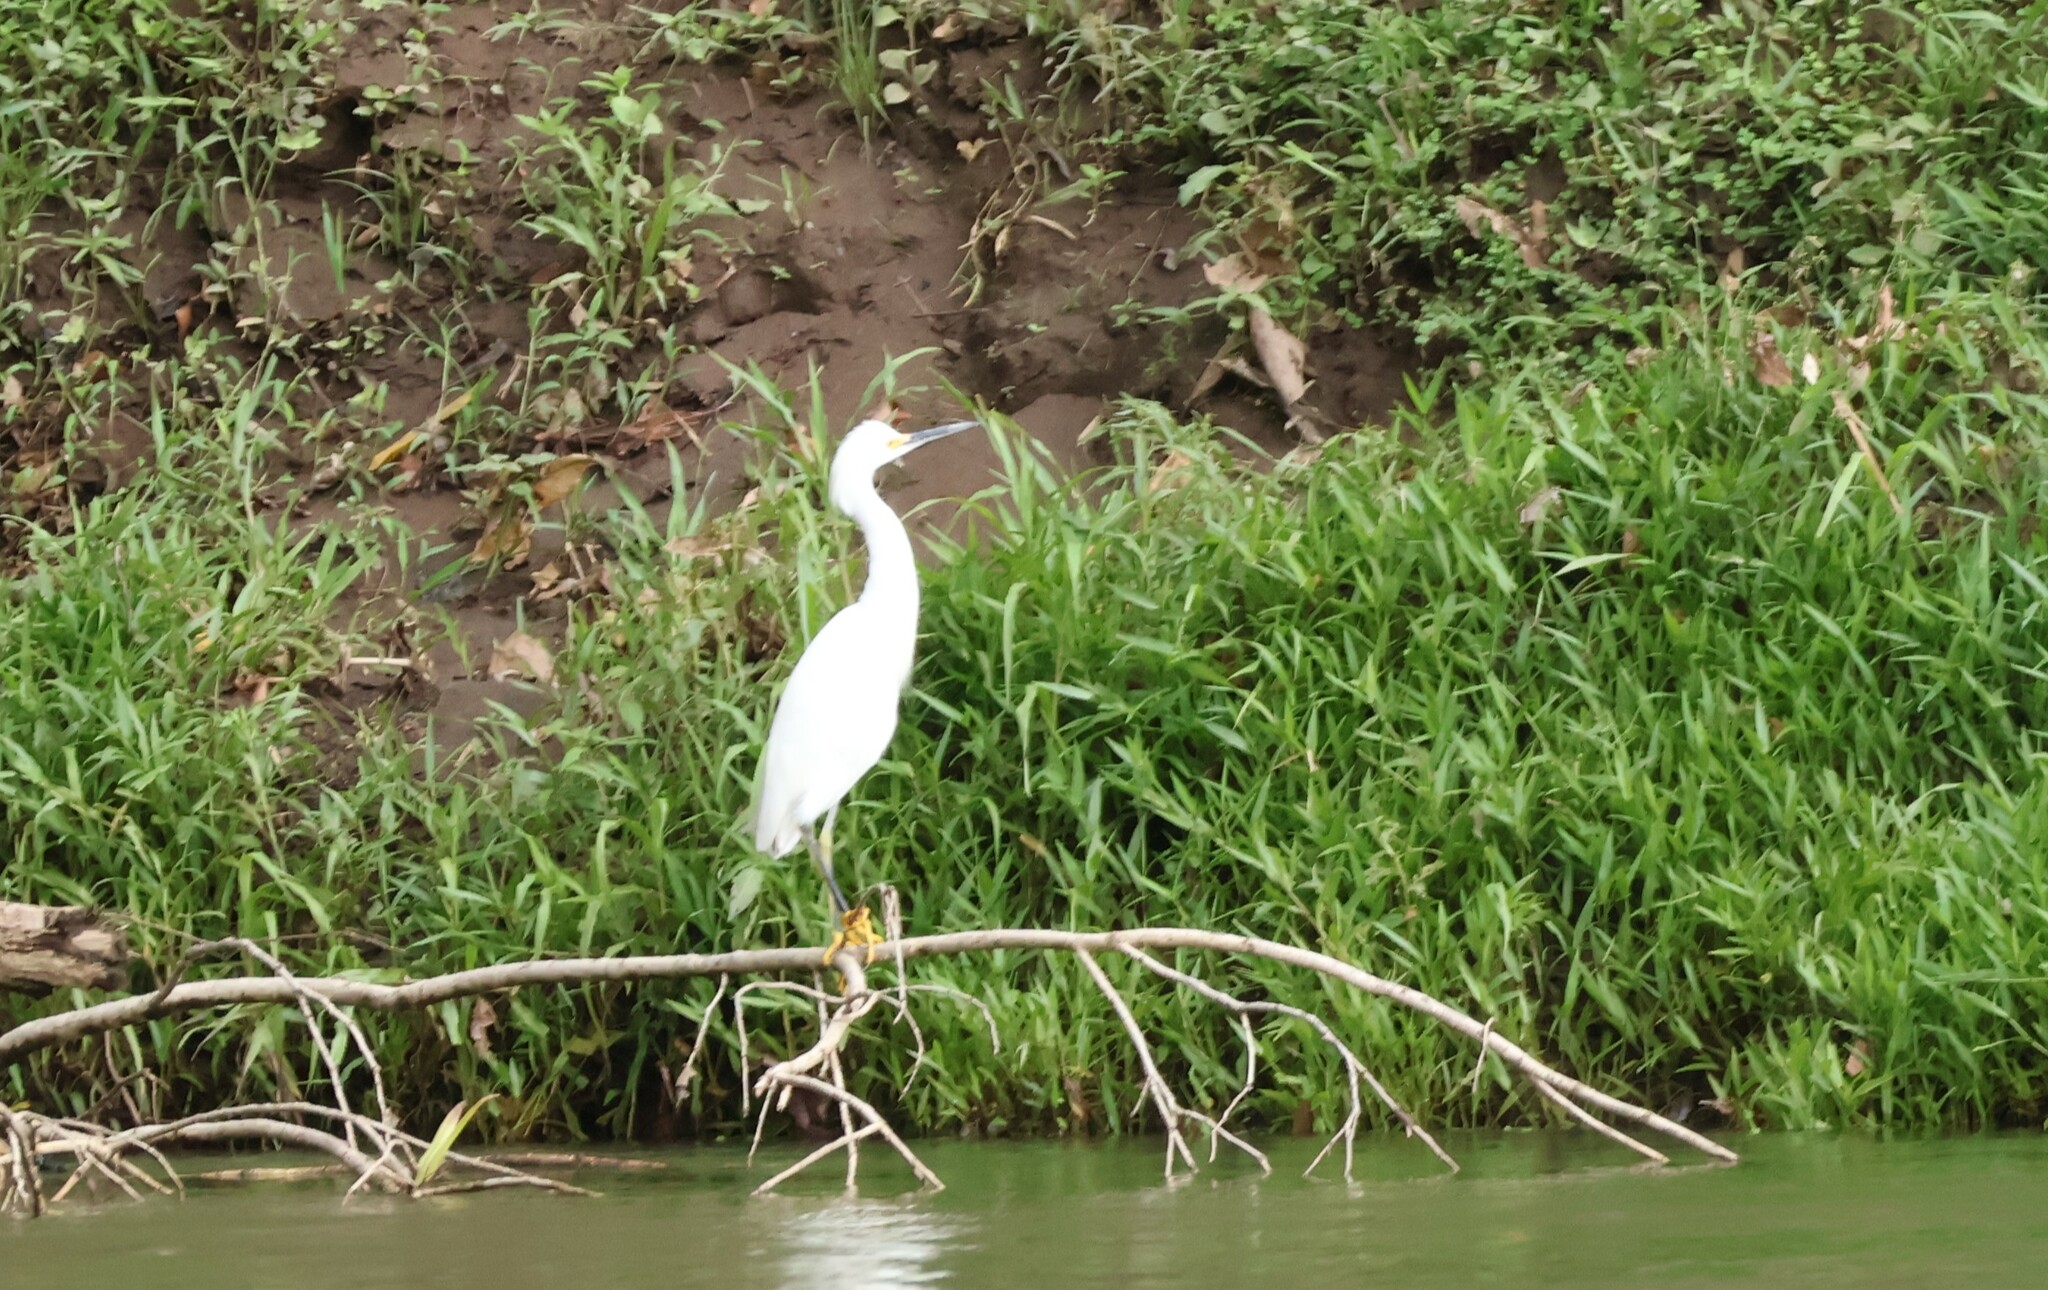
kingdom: Animalia
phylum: Chordata
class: Aves
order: Pelecaniformes
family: Ardeidae
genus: Egretta
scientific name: Egretta thula
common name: Snowy egret
